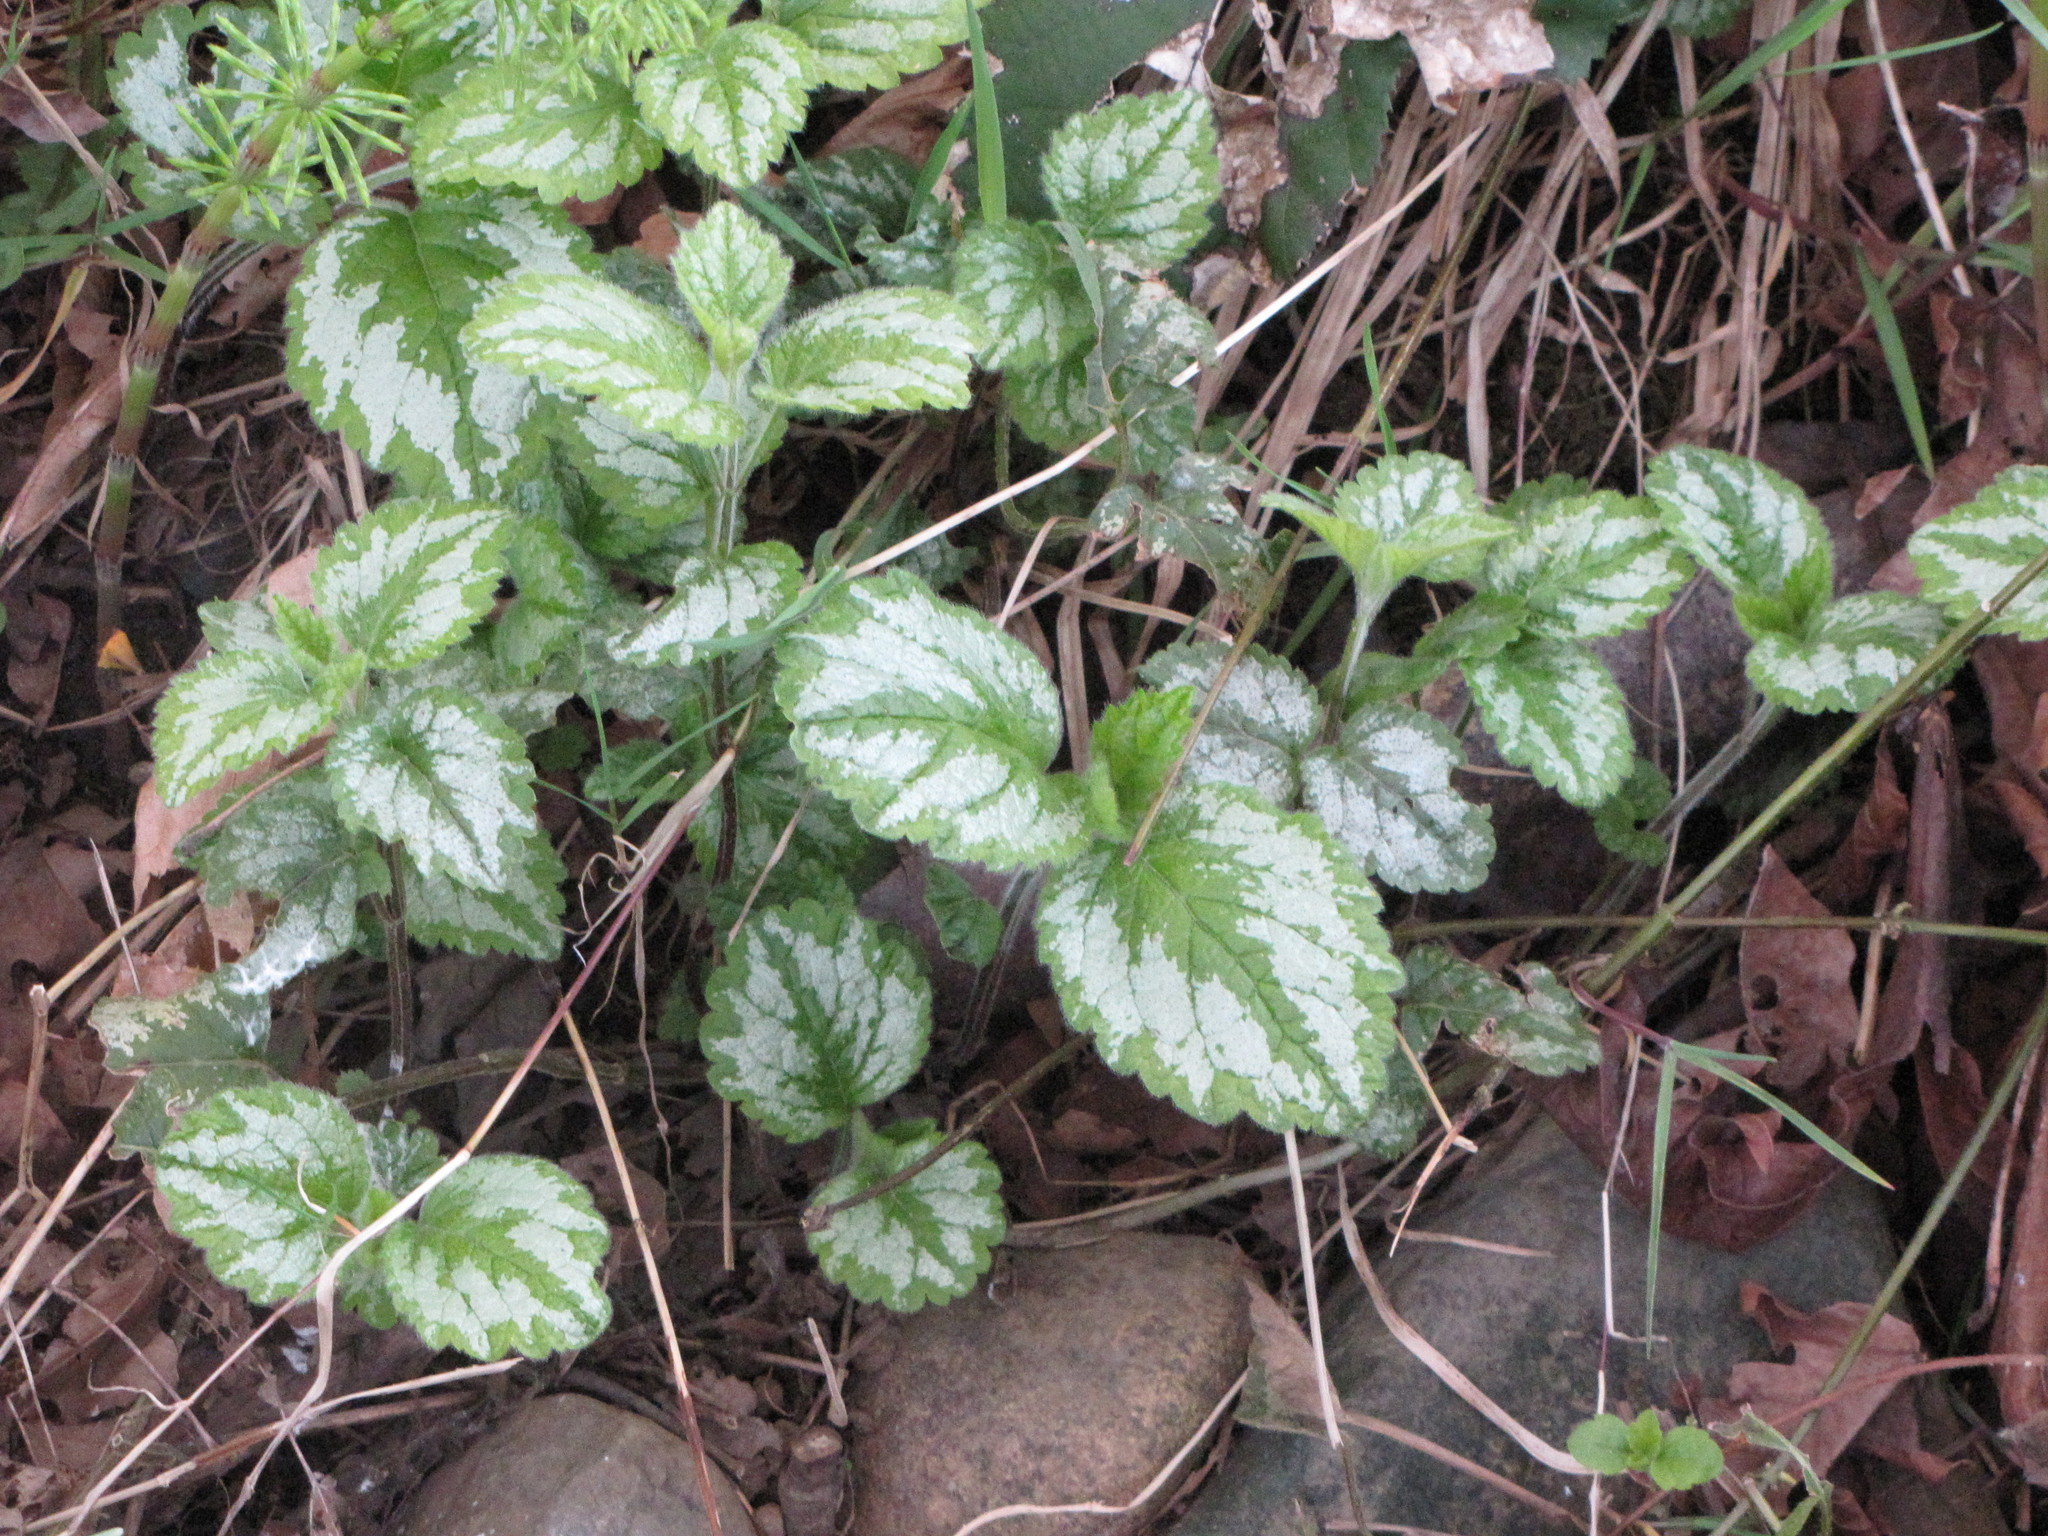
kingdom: Plantae
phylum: Tracheophyta
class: Magnoliopsida
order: Lamiales
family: Lamiaceae
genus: Lamium
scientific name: Lamium galeobdolon
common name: Yellow archangel
